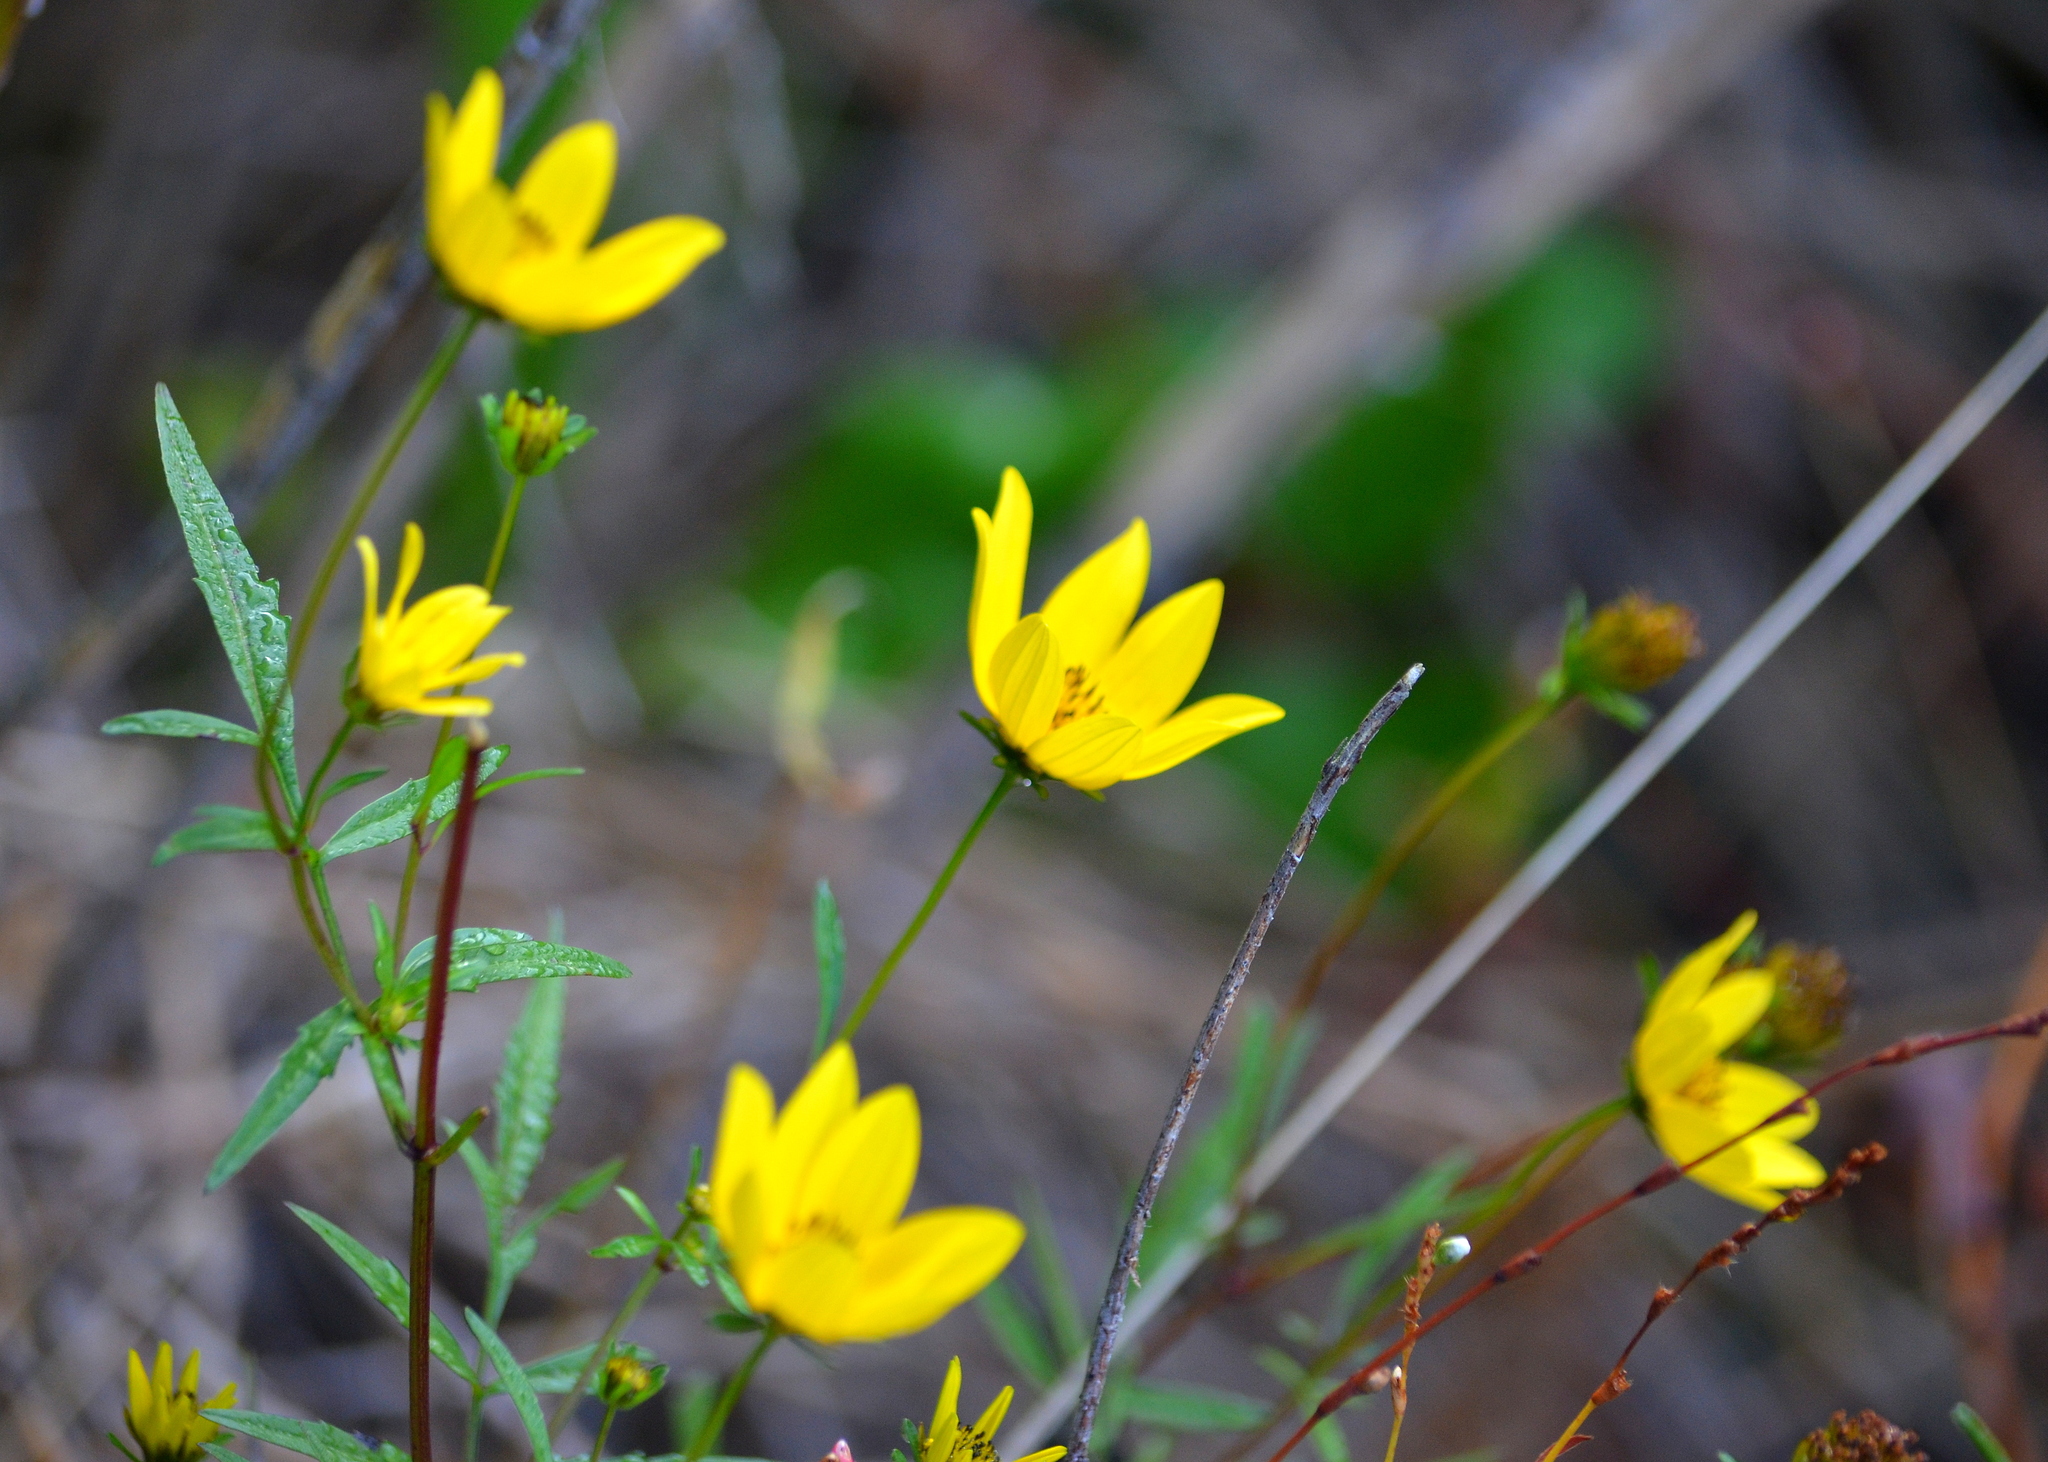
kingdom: Plantae
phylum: Tracheophyta
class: Magnoliopsida
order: Asterales
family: Asteraceae
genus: Bidens
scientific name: Bidens aristosa
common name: Western tickseed
